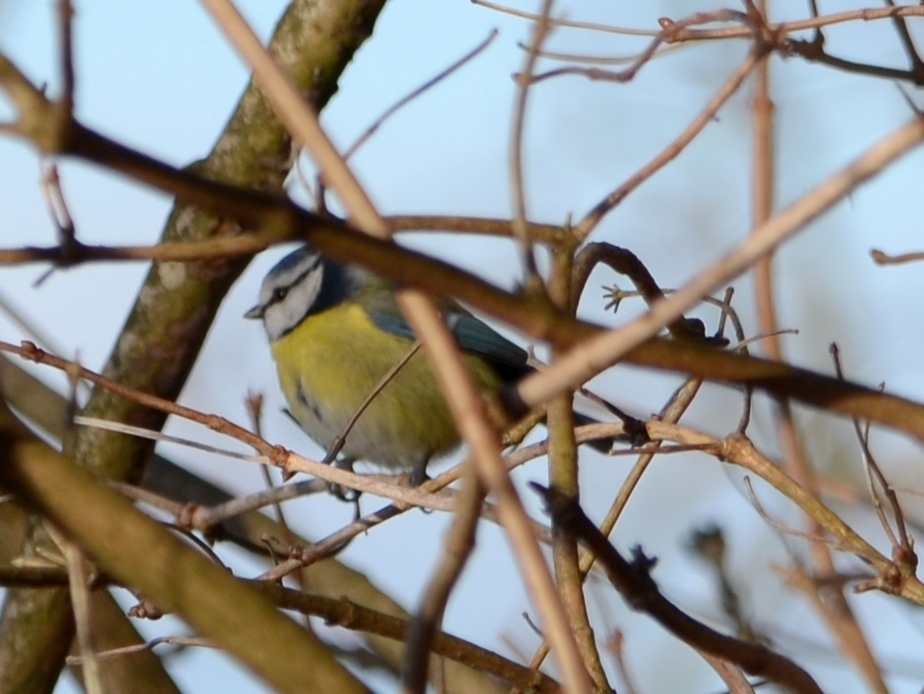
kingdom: Animalia
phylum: Chordata
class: Aves
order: Passeriformes
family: Paridae
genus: Cyanistes
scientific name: Cyanistes caeruleus
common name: Eurasian blue tit
